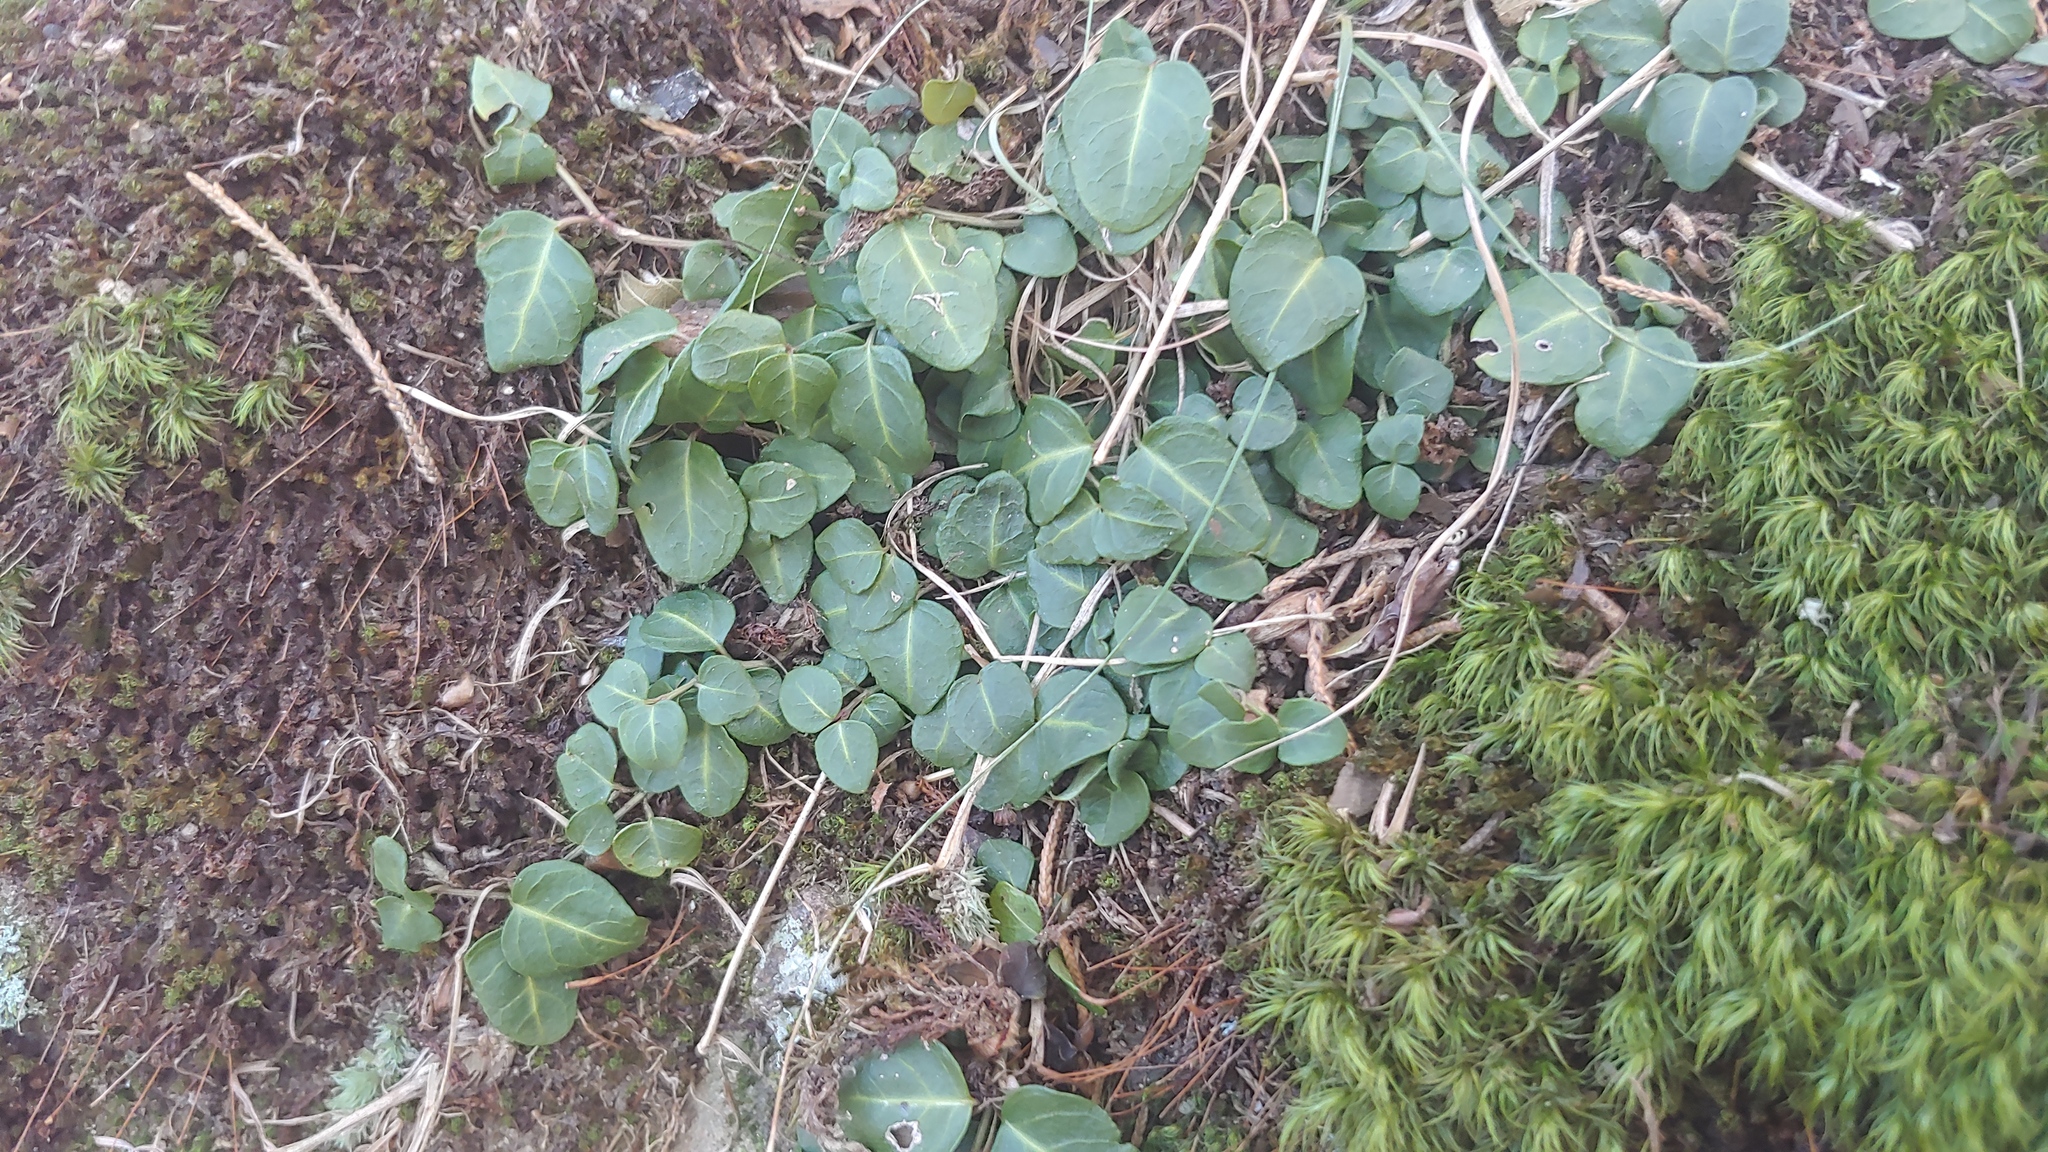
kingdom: Plantae
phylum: Tracheophyta
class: Magnoliopsida
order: Gentianales
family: Rubiaceae
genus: Mitchella
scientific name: Mitchella repens
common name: Partridge-berry
